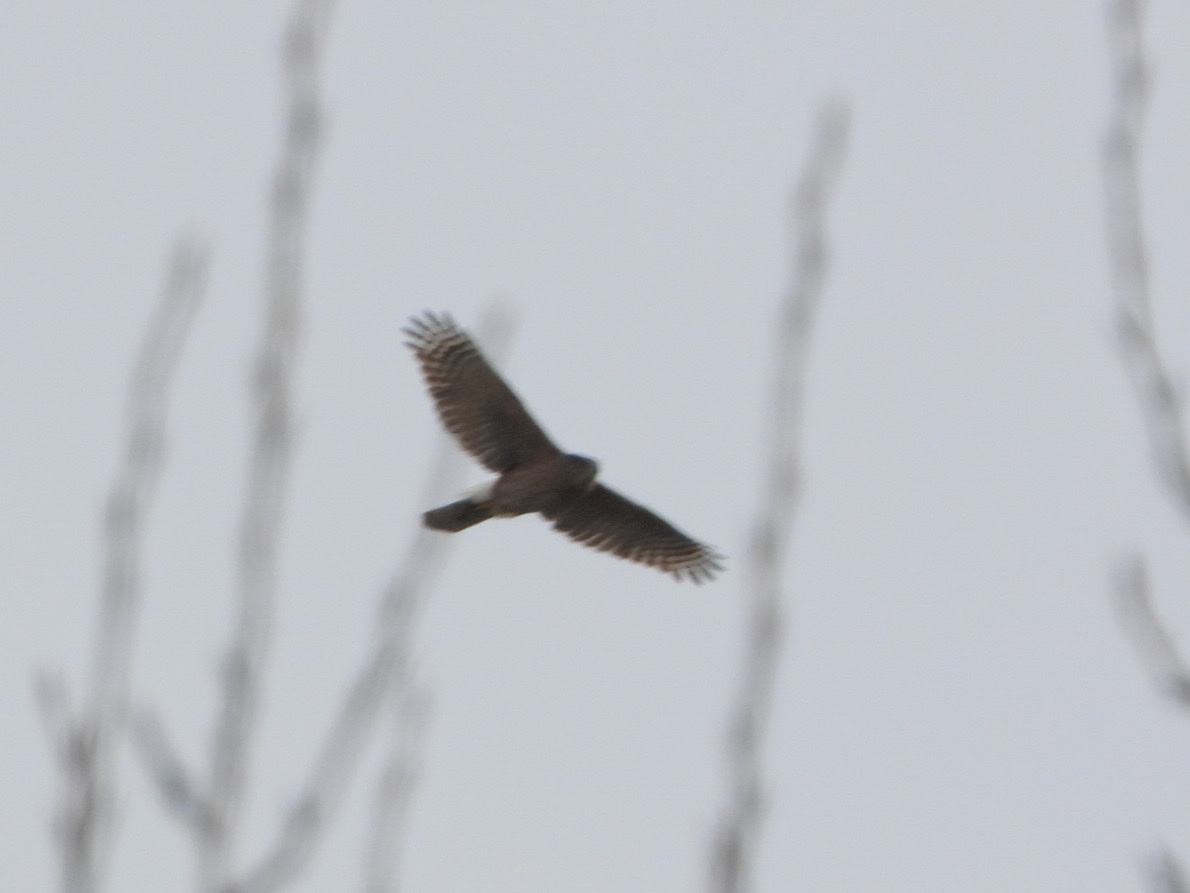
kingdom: Animalia
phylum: Chordata
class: Aves
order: Accipitriformes
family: Accipitridae
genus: Accipiter
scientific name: Accipiter cooperii
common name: Cooper's hawk
